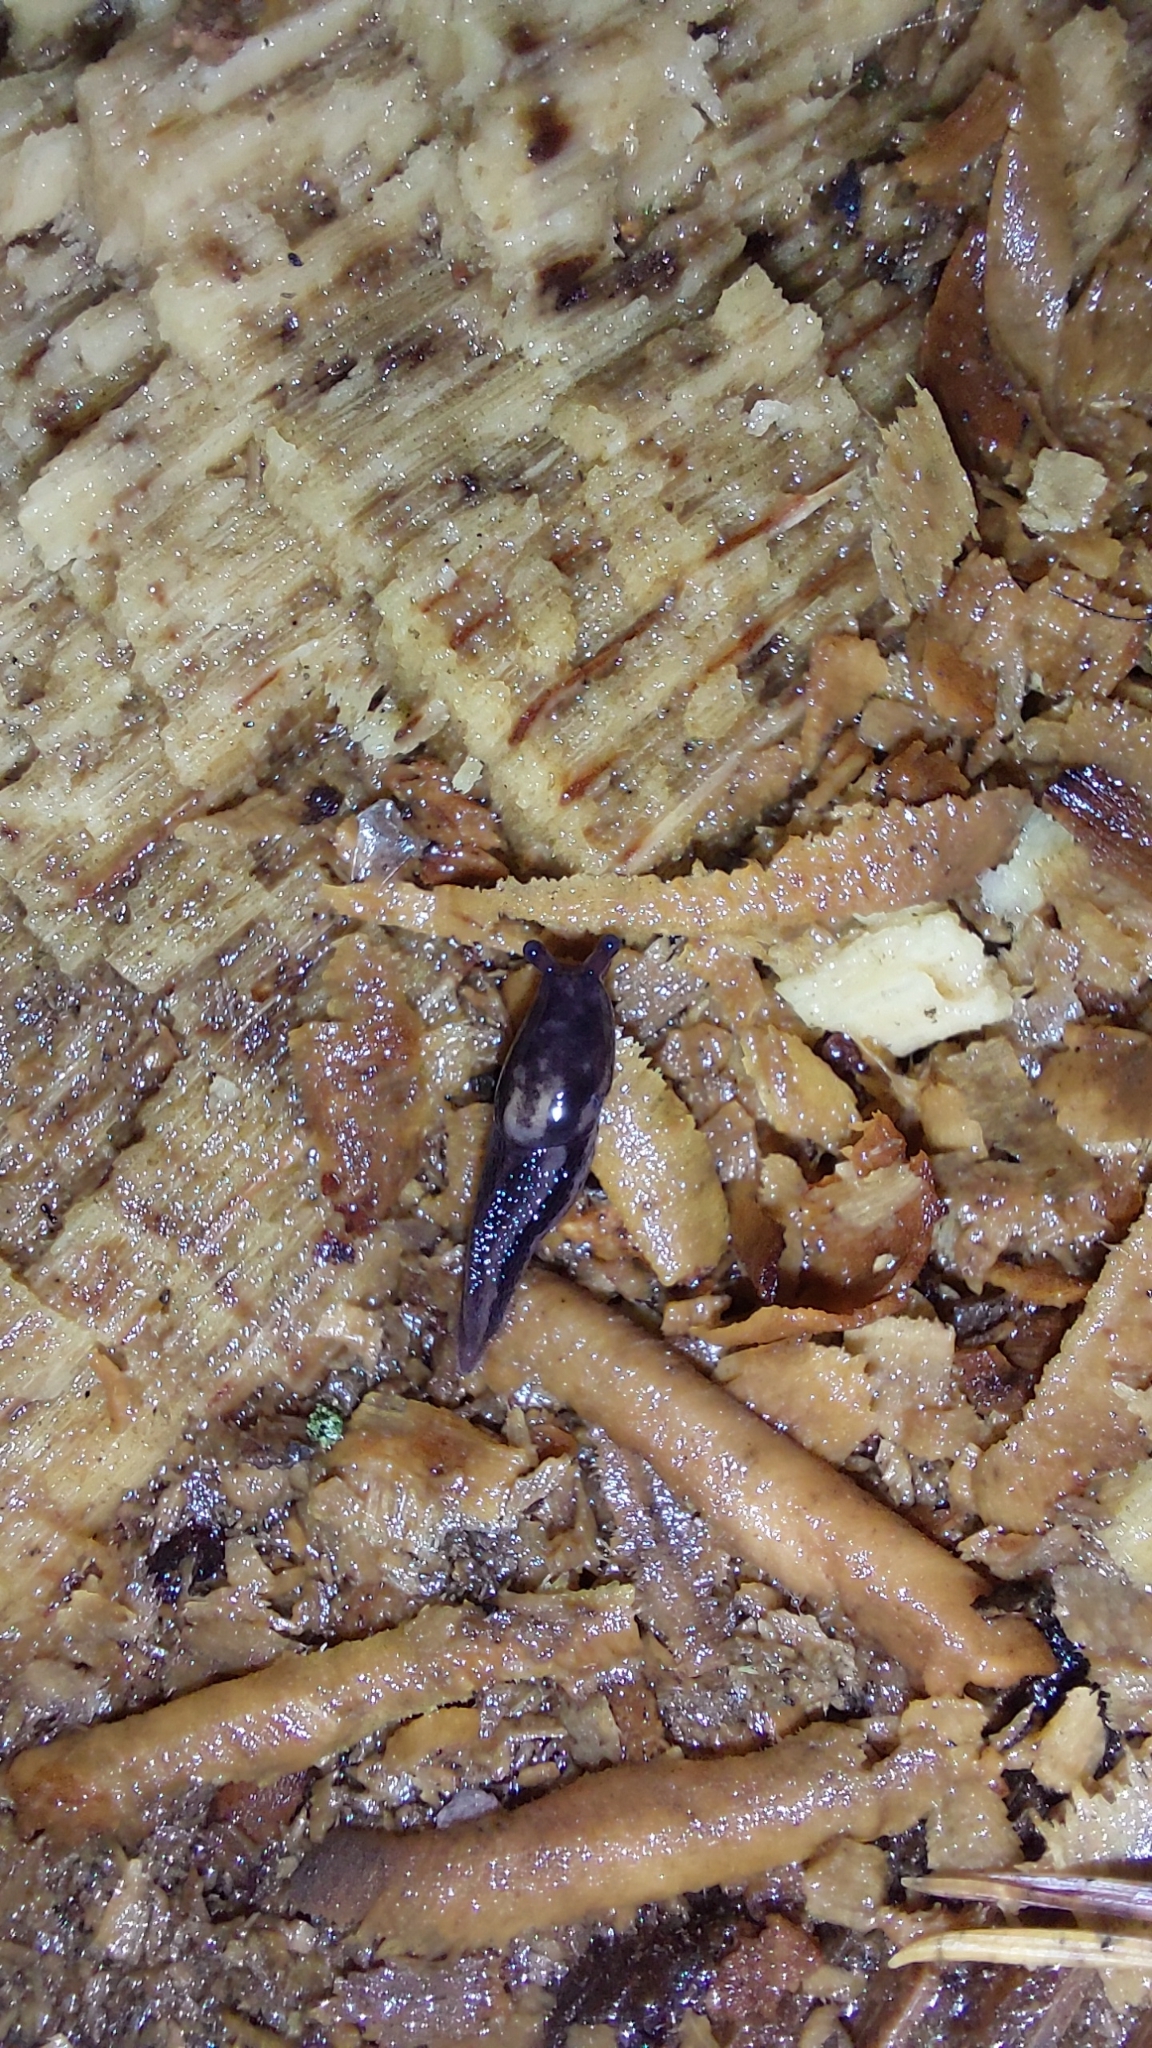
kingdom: Animalia
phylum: Mollusca
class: Gastropoda
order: Stylommatophora
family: Limacidae
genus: Limax
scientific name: Limax maximus
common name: Great grey slug
